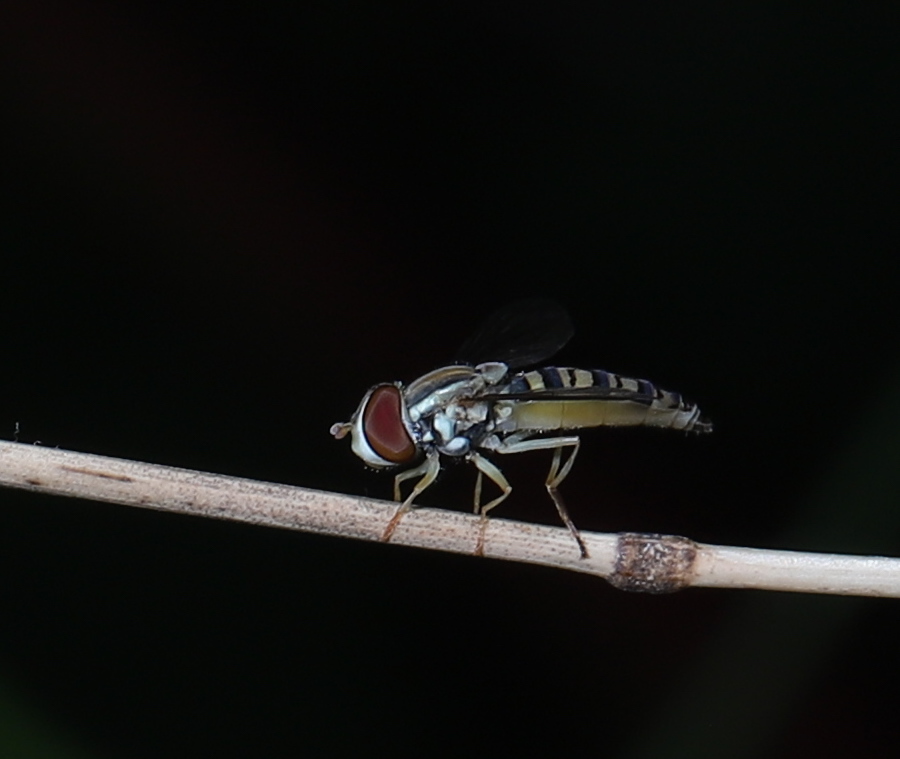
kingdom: Animalia
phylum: Arthropoda
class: Insecta
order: Diptera
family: Syrphidae
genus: Toxomerus
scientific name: Toxomerus politus
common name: Maize calligrapher
